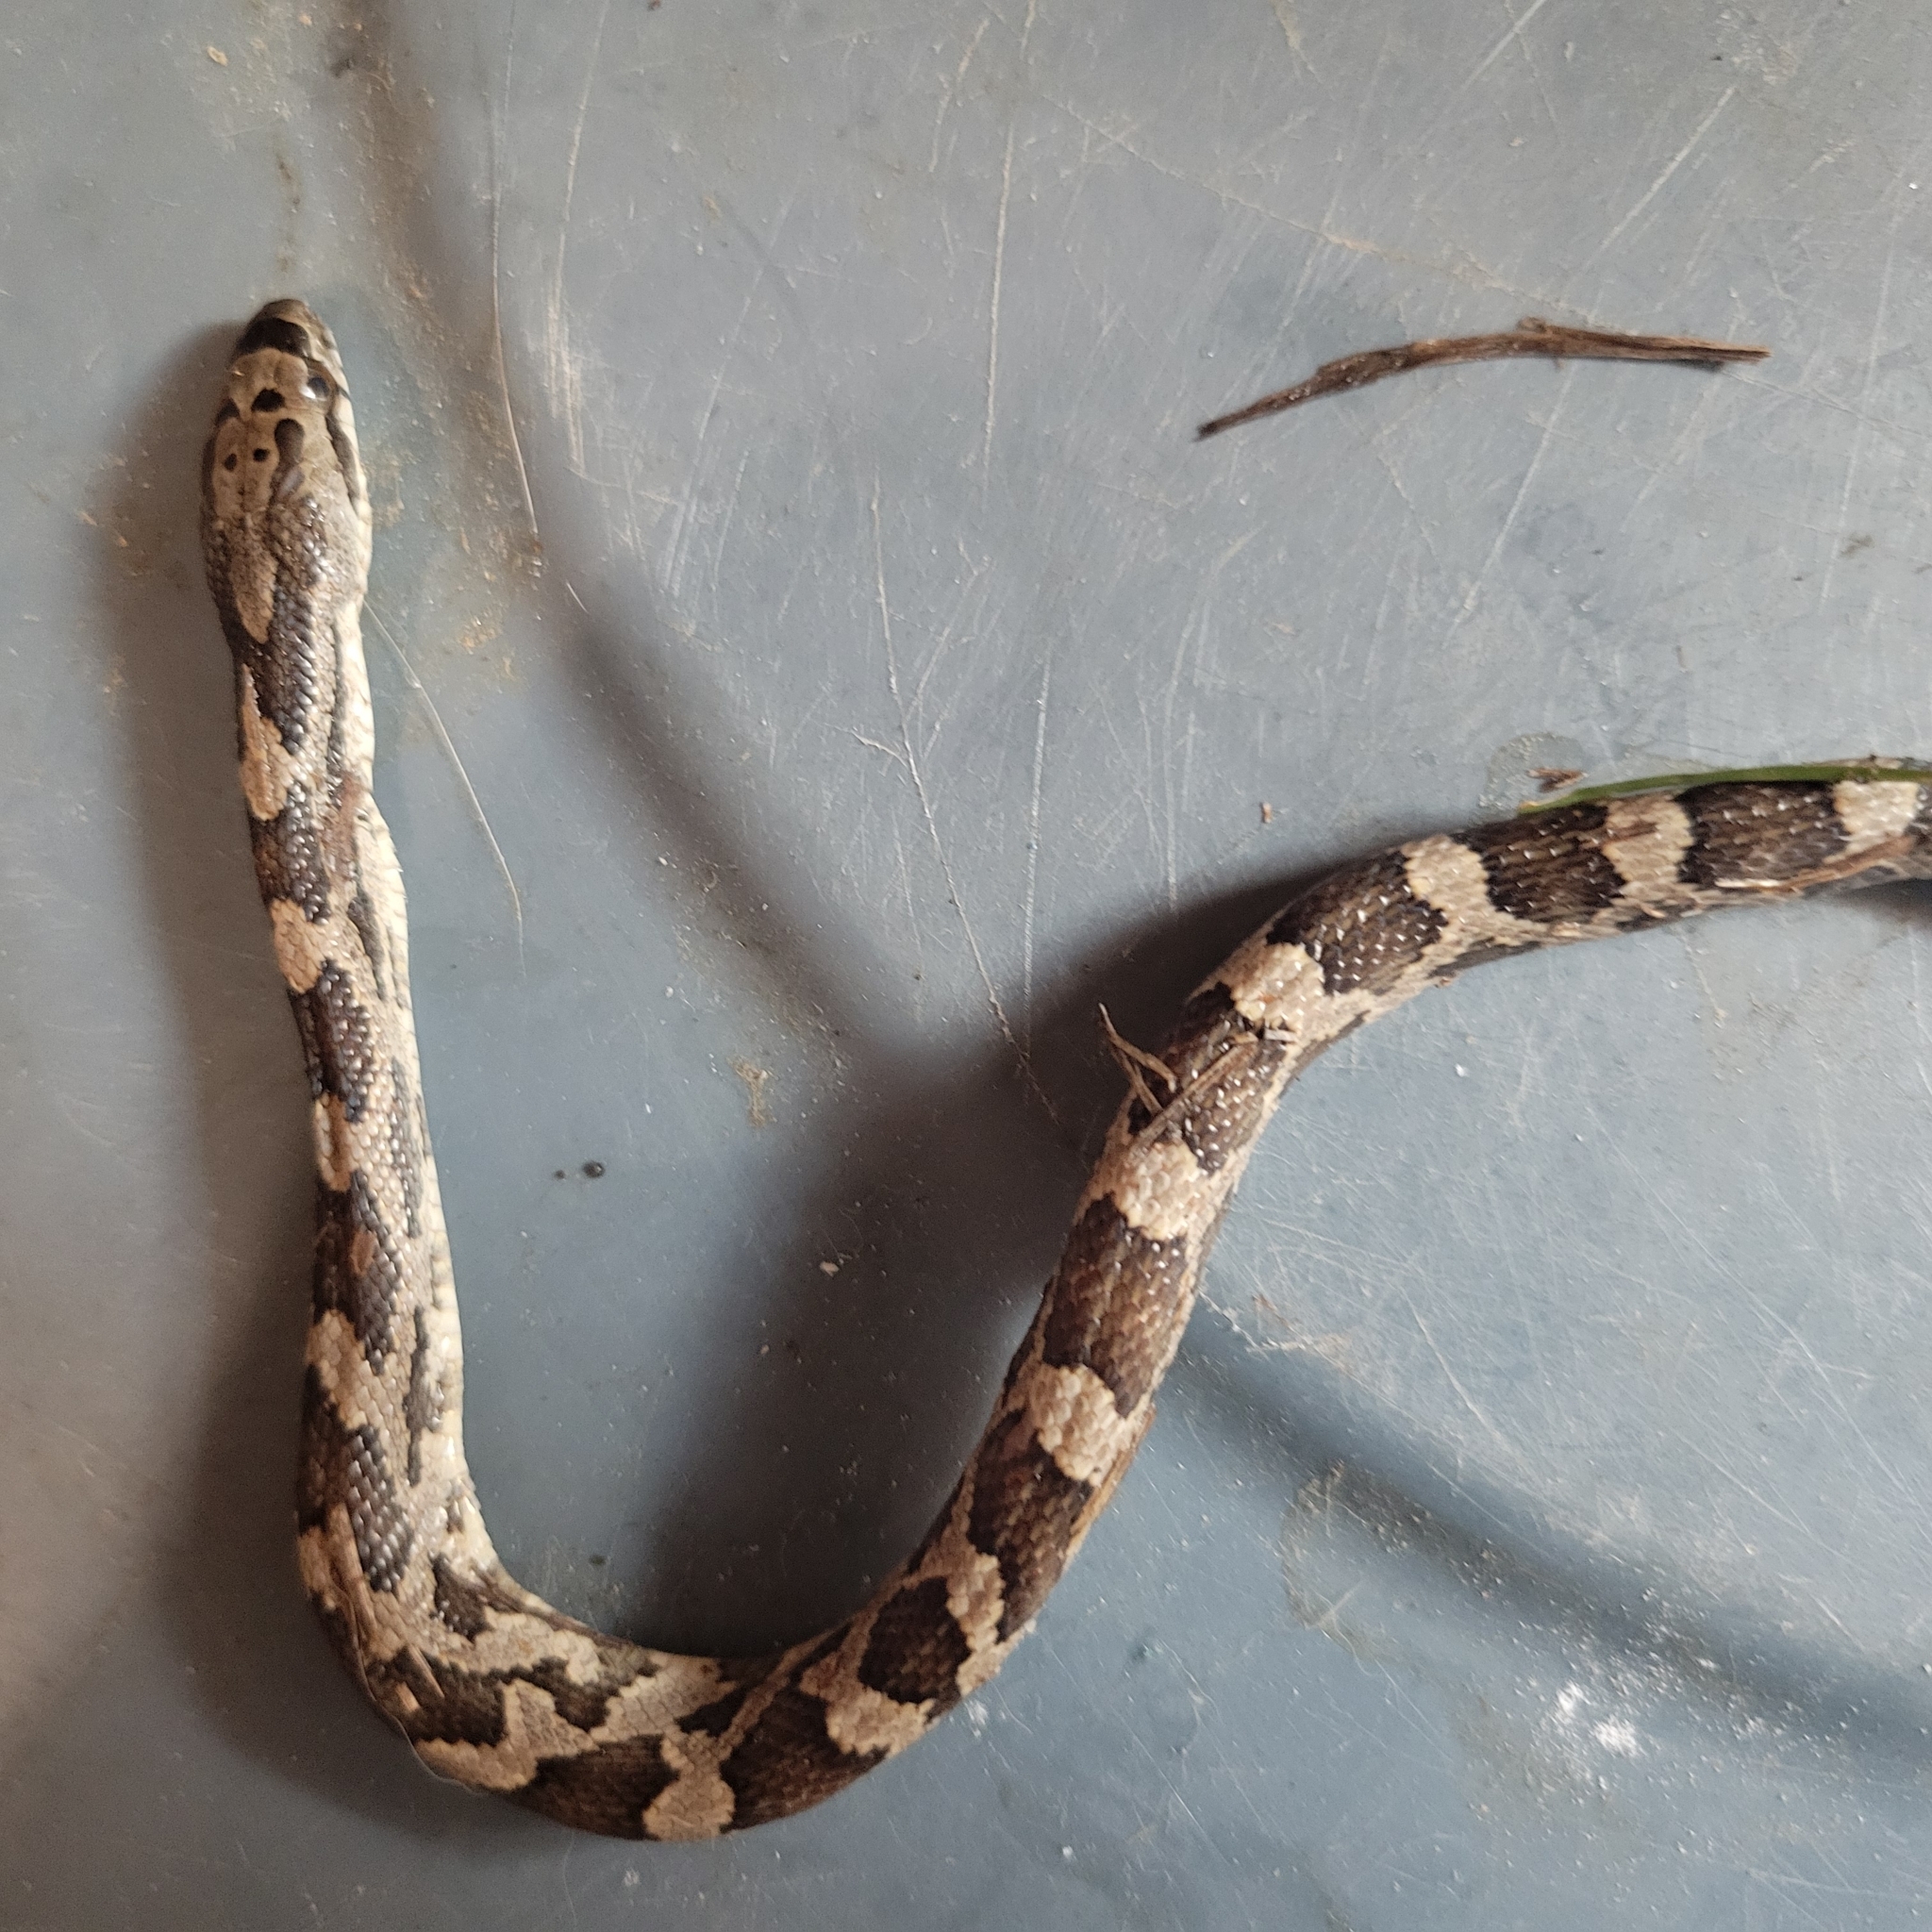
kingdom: Animalia
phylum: Chordata
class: Squamata
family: Colubridae
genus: Pantherophis
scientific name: Pantherophis obsoletus
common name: Black rat snake
